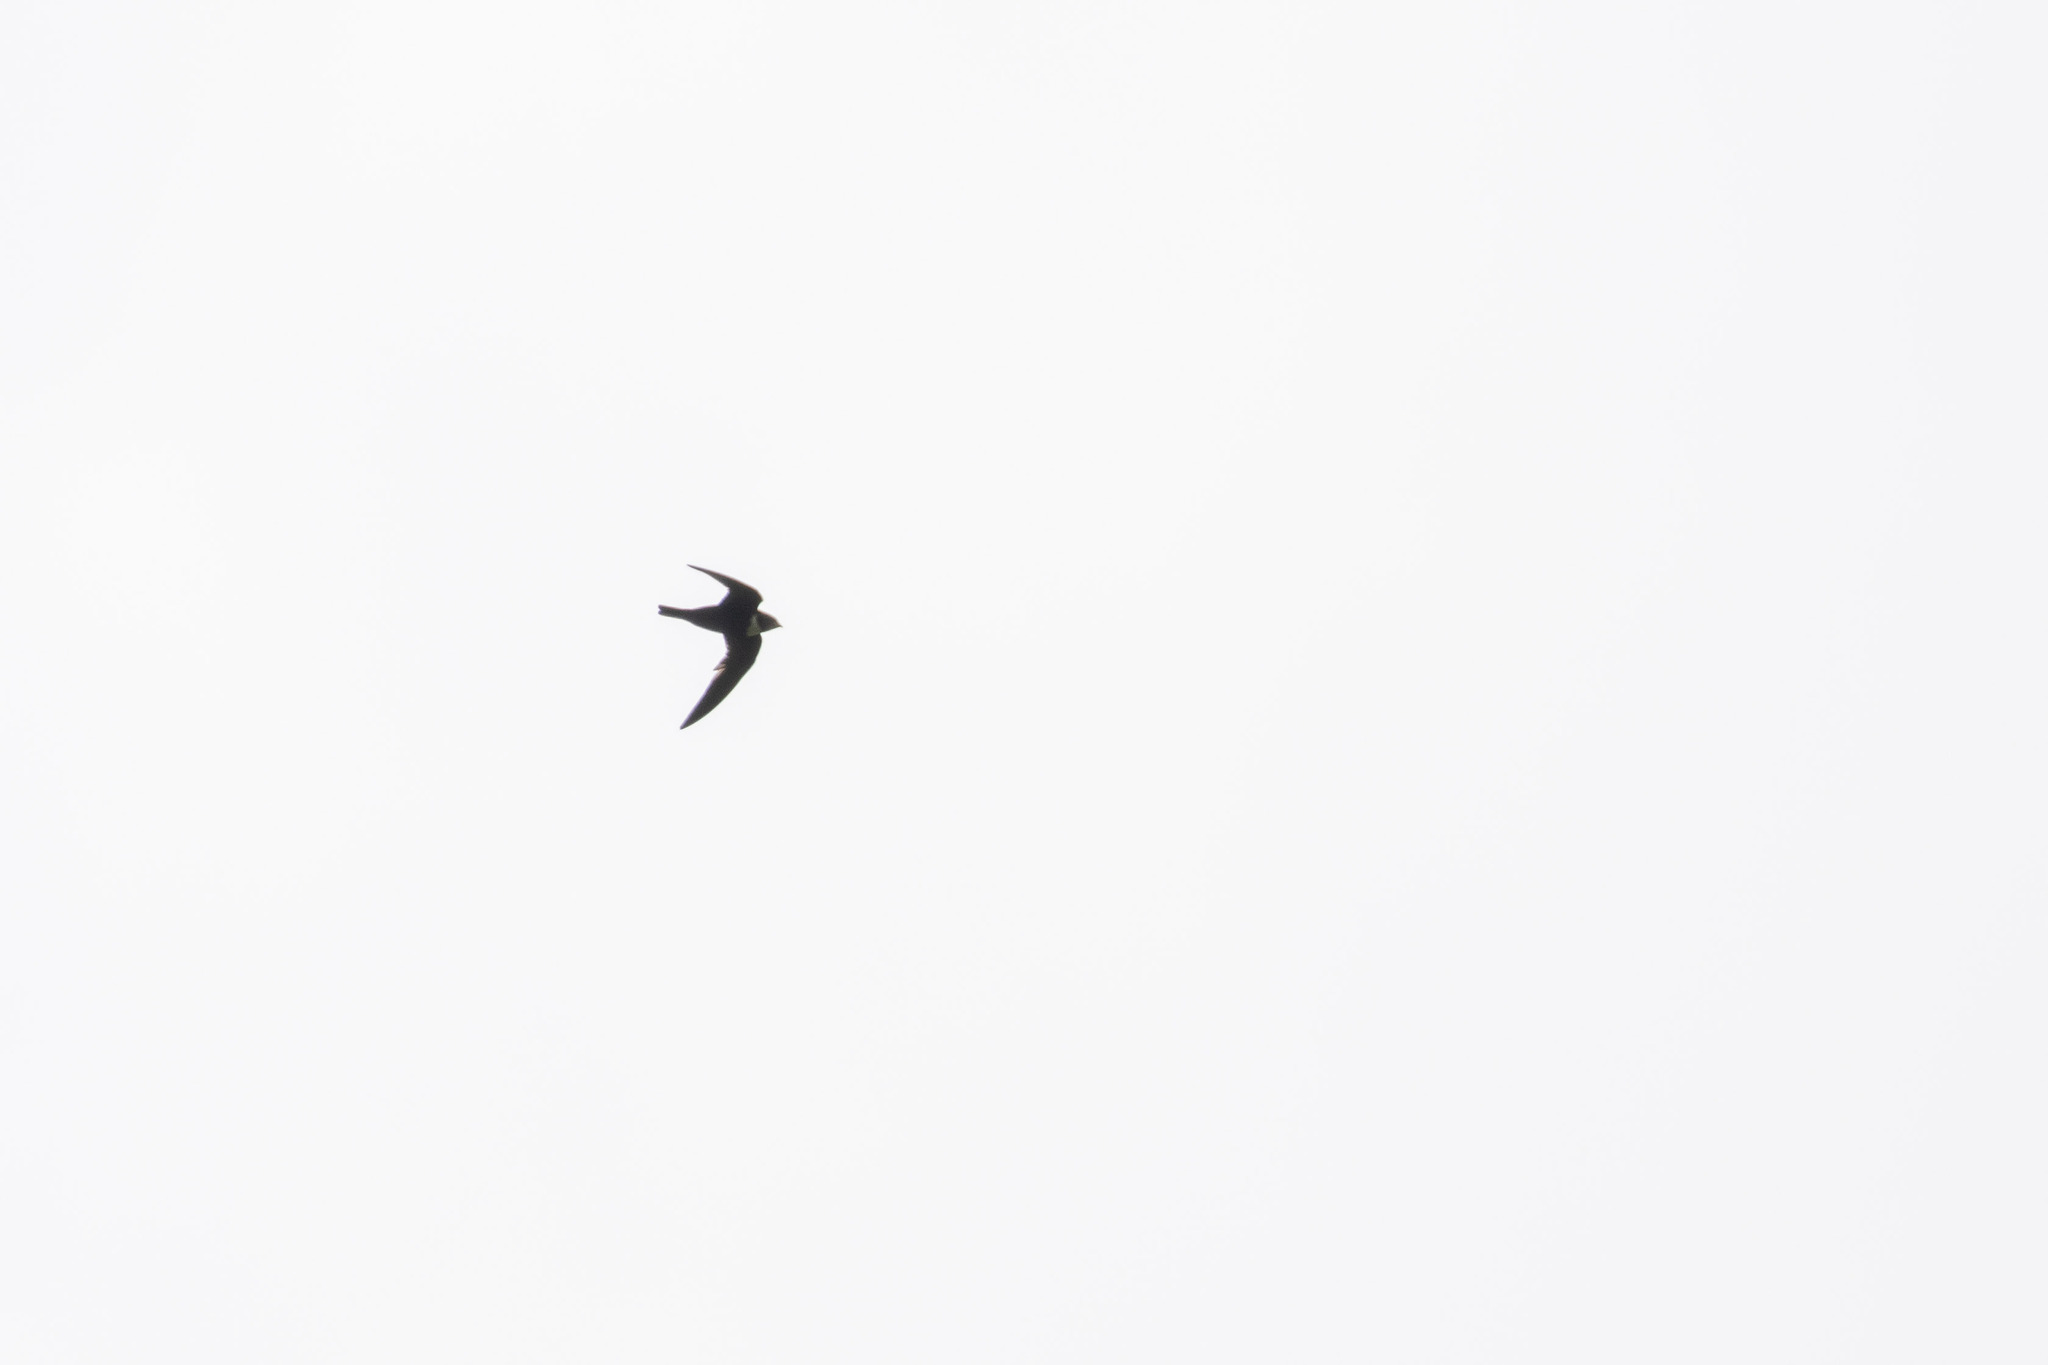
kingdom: Animalia
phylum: Chordata
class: Aves
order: Apodiformes
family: Apodidae
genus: Streptoprocne
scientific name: Streptoprocne zonaris
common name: White-collared swift
